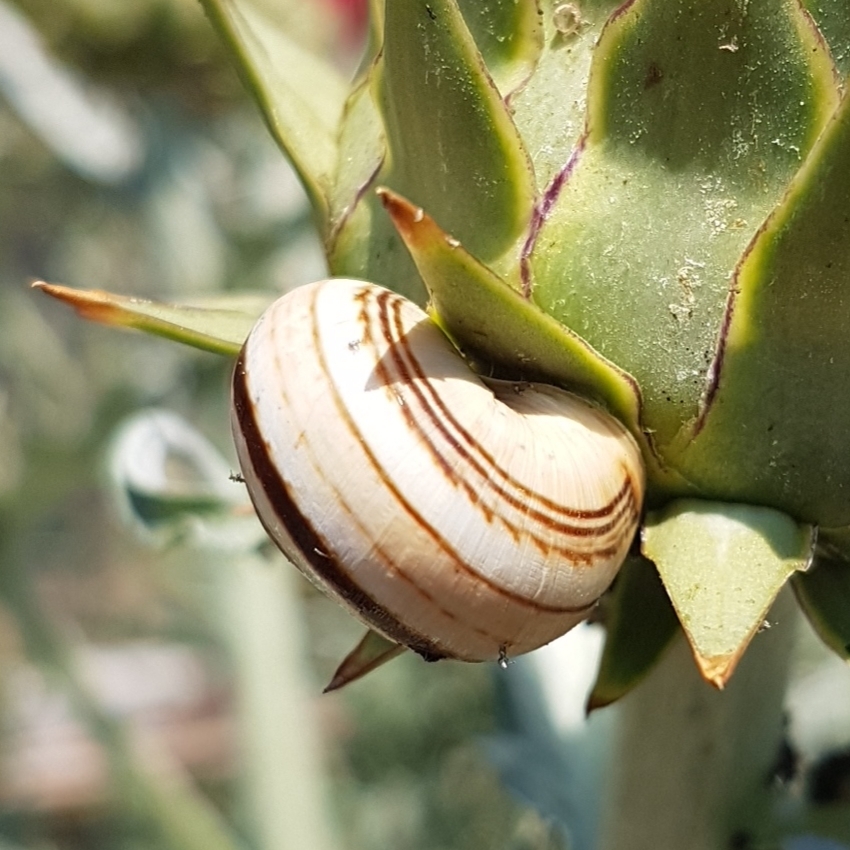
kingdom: Animalia
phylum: Mollusca
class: Gastropoda
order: Stylommatophora
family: Helicidae
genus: Theba
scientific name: Theba pisana
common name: White snail
